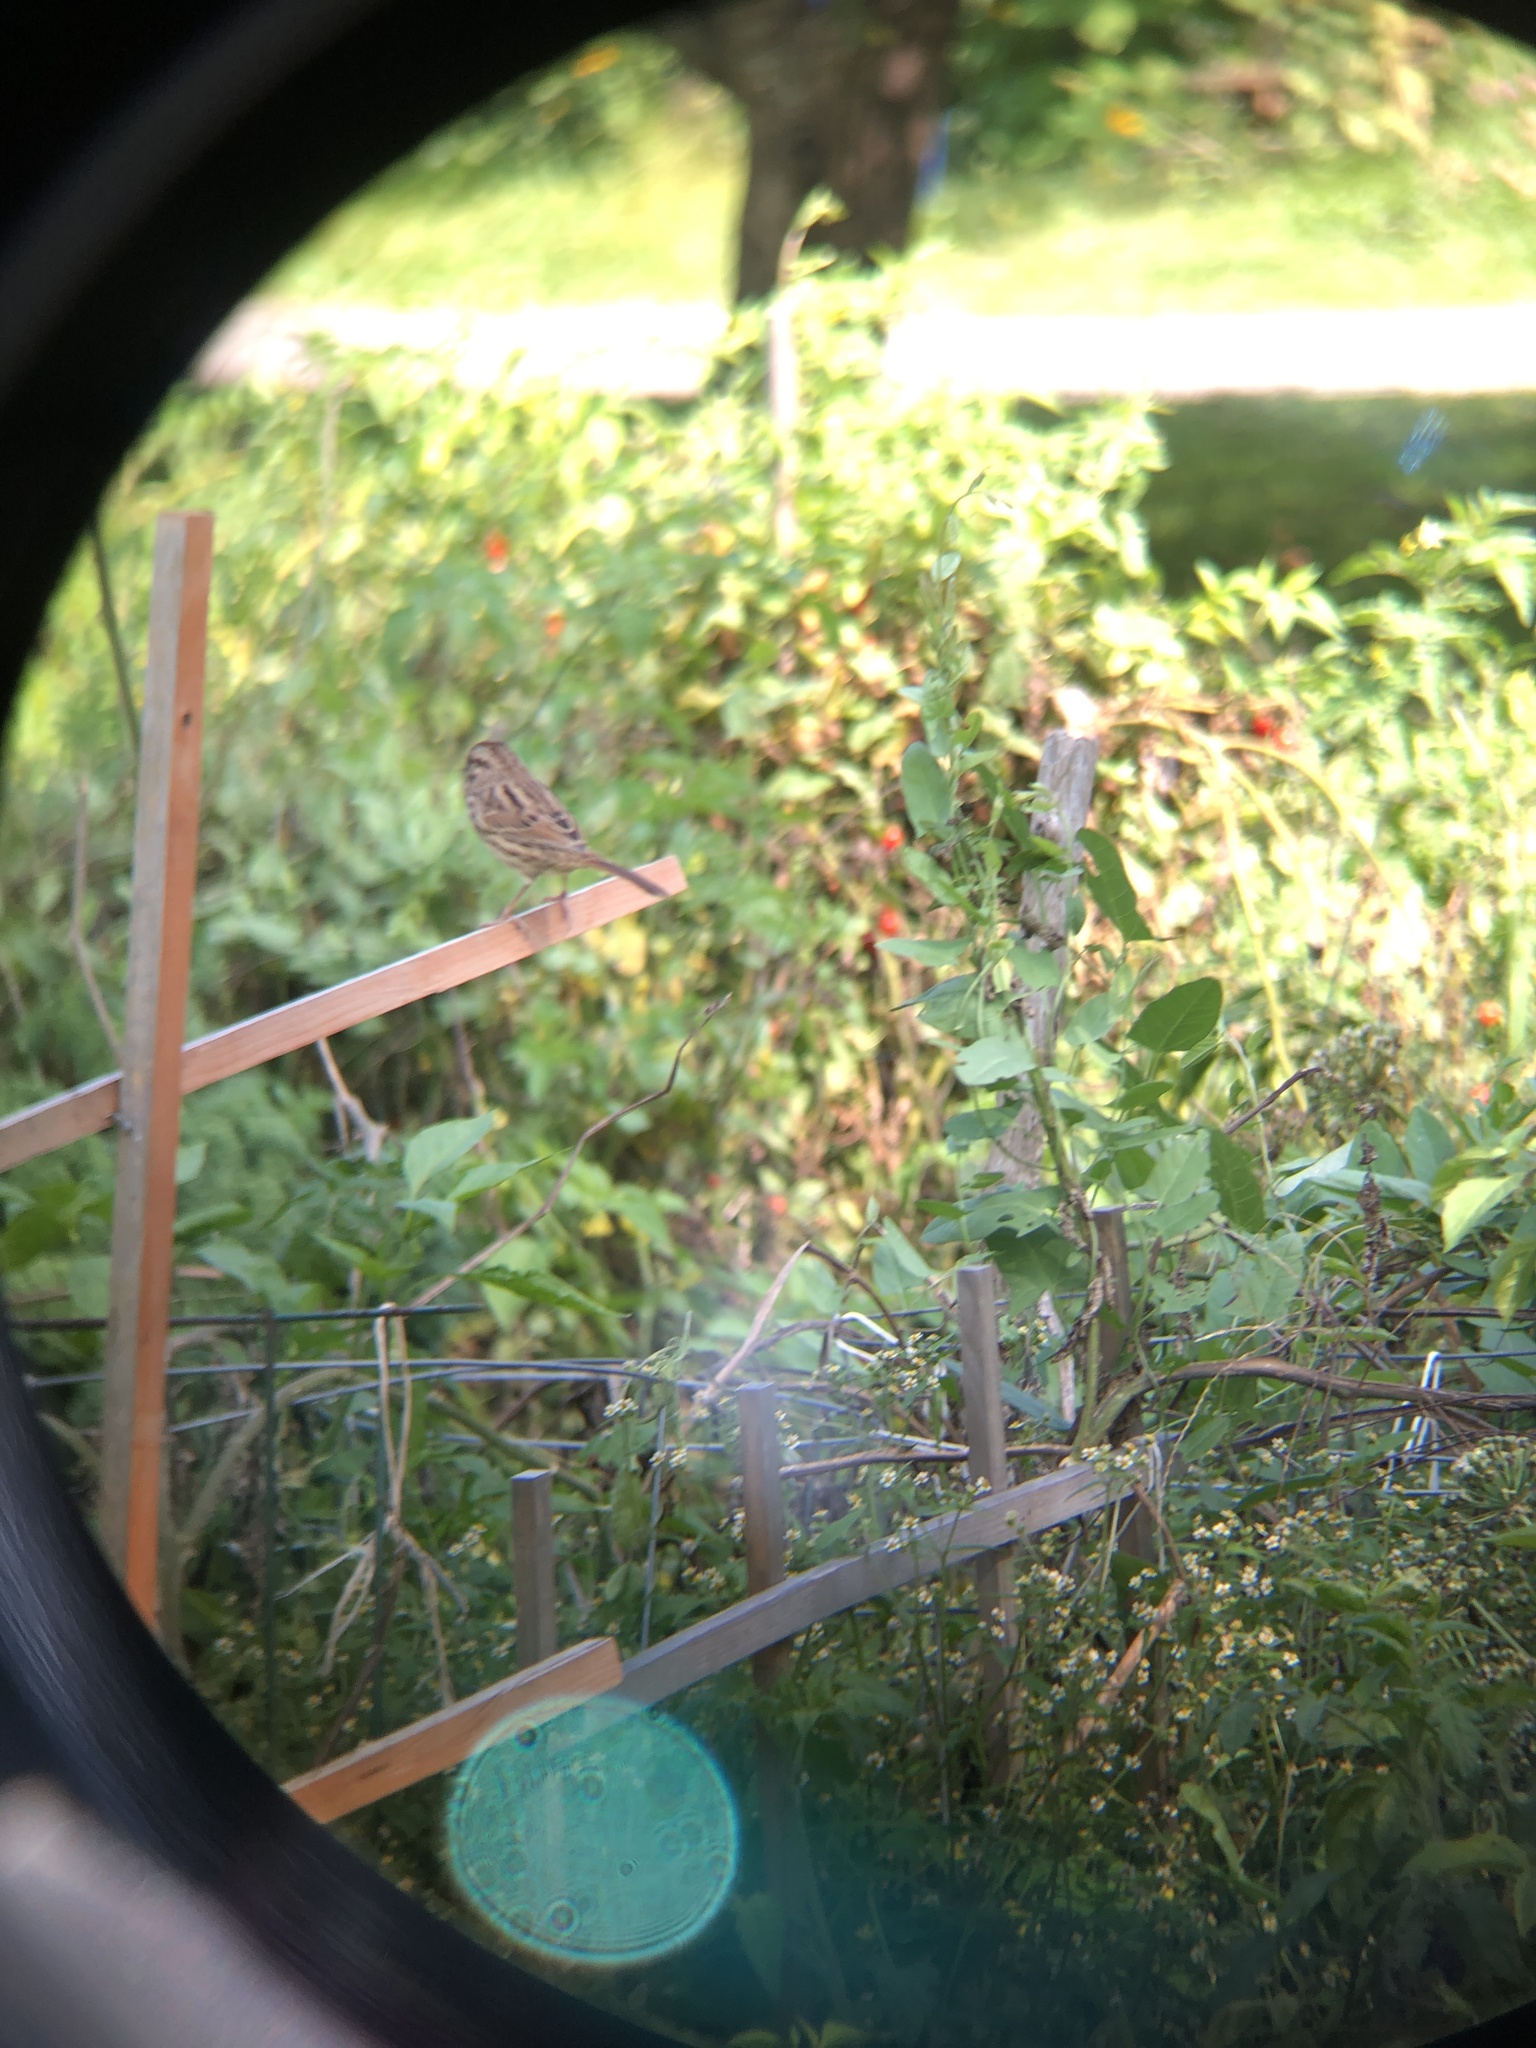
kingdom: Animalia
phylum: Chordata
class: Aves
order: Passeriformes
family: Passerellidae
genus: Melospiza
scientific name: Melospiza melodia
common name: Song sparrow
